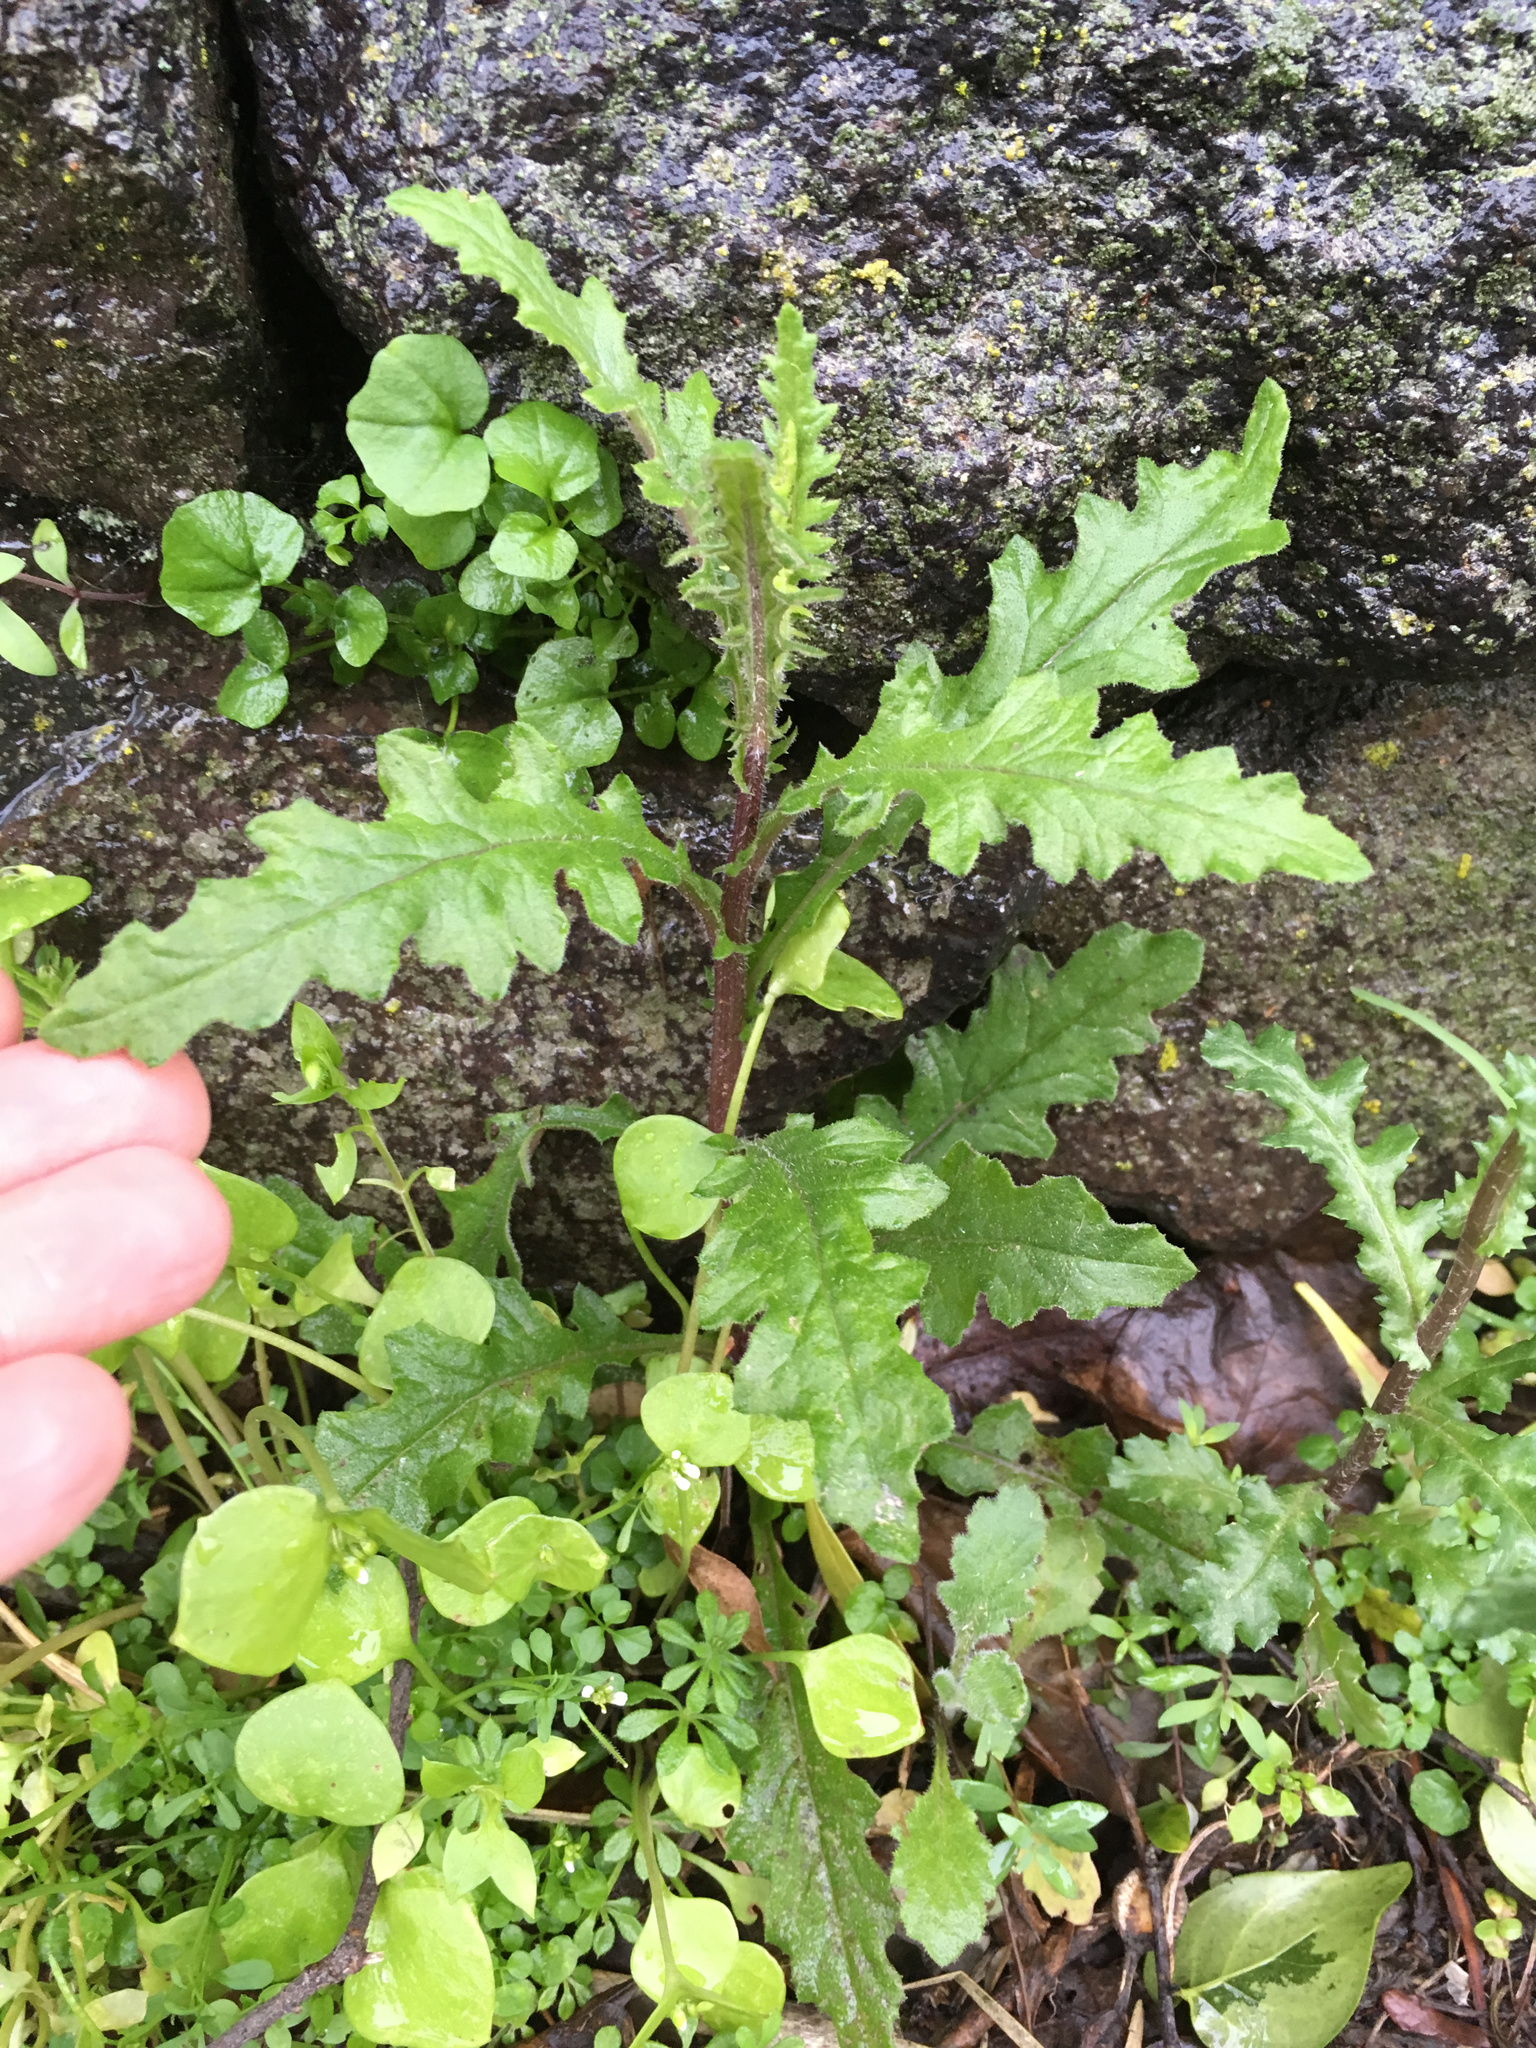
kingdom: Plantae
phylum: Tracheophyta
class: Magnoliopsida
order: Asterales
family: Asteraceae
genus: Senecio
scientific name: Senecio hispidulus
